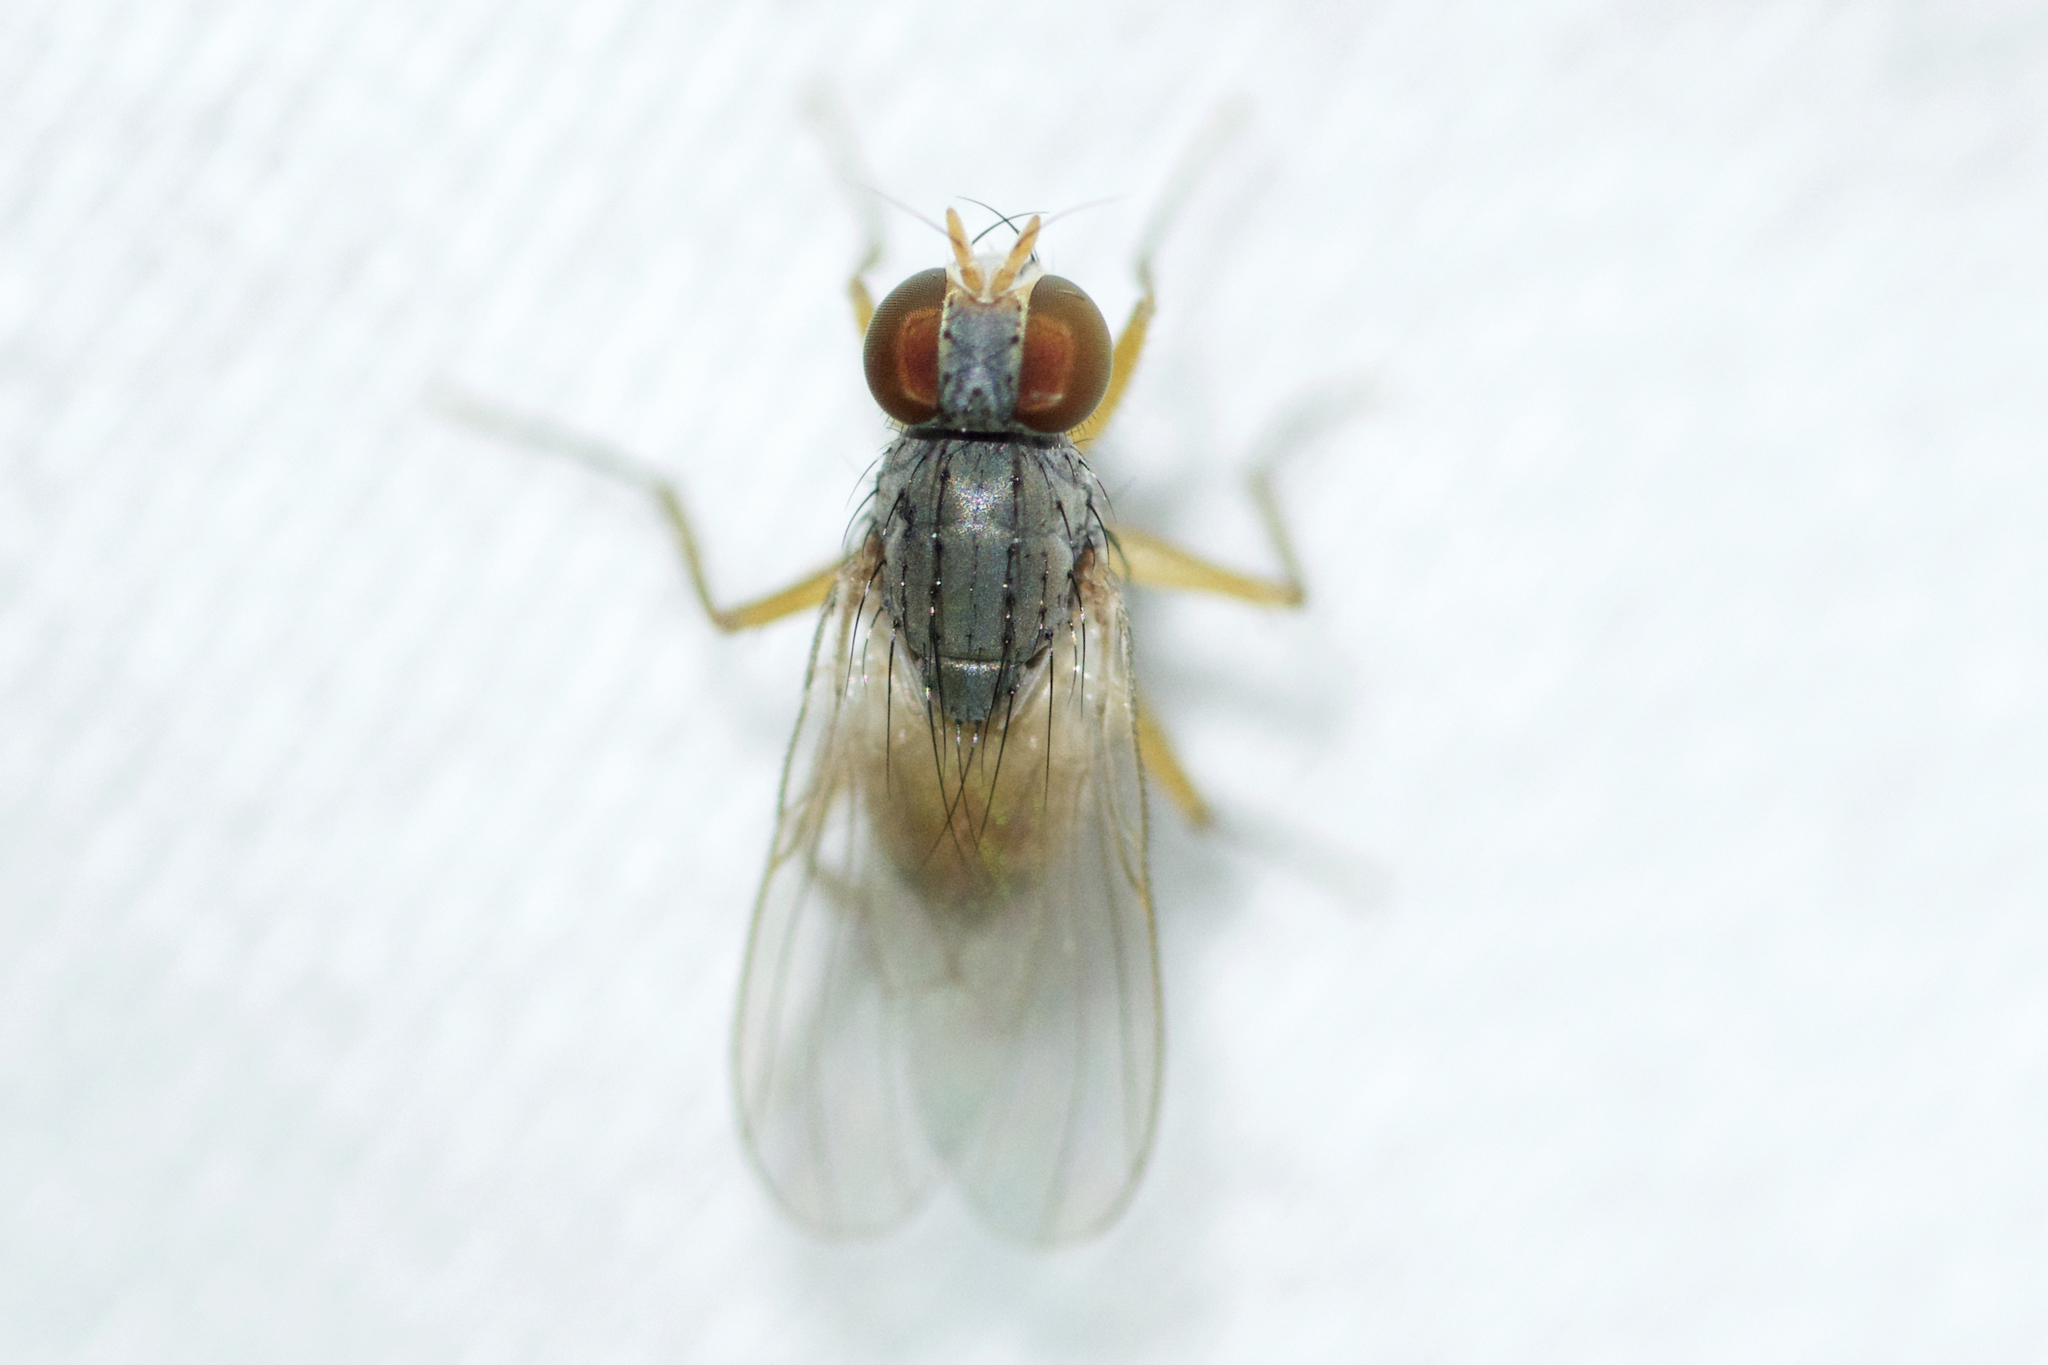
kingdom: Animalia
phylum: Arthropoda
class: Insecta
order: Diptera
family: Muscidae
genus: Neodexiopsis
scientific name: Neodexiopsis calopyga
